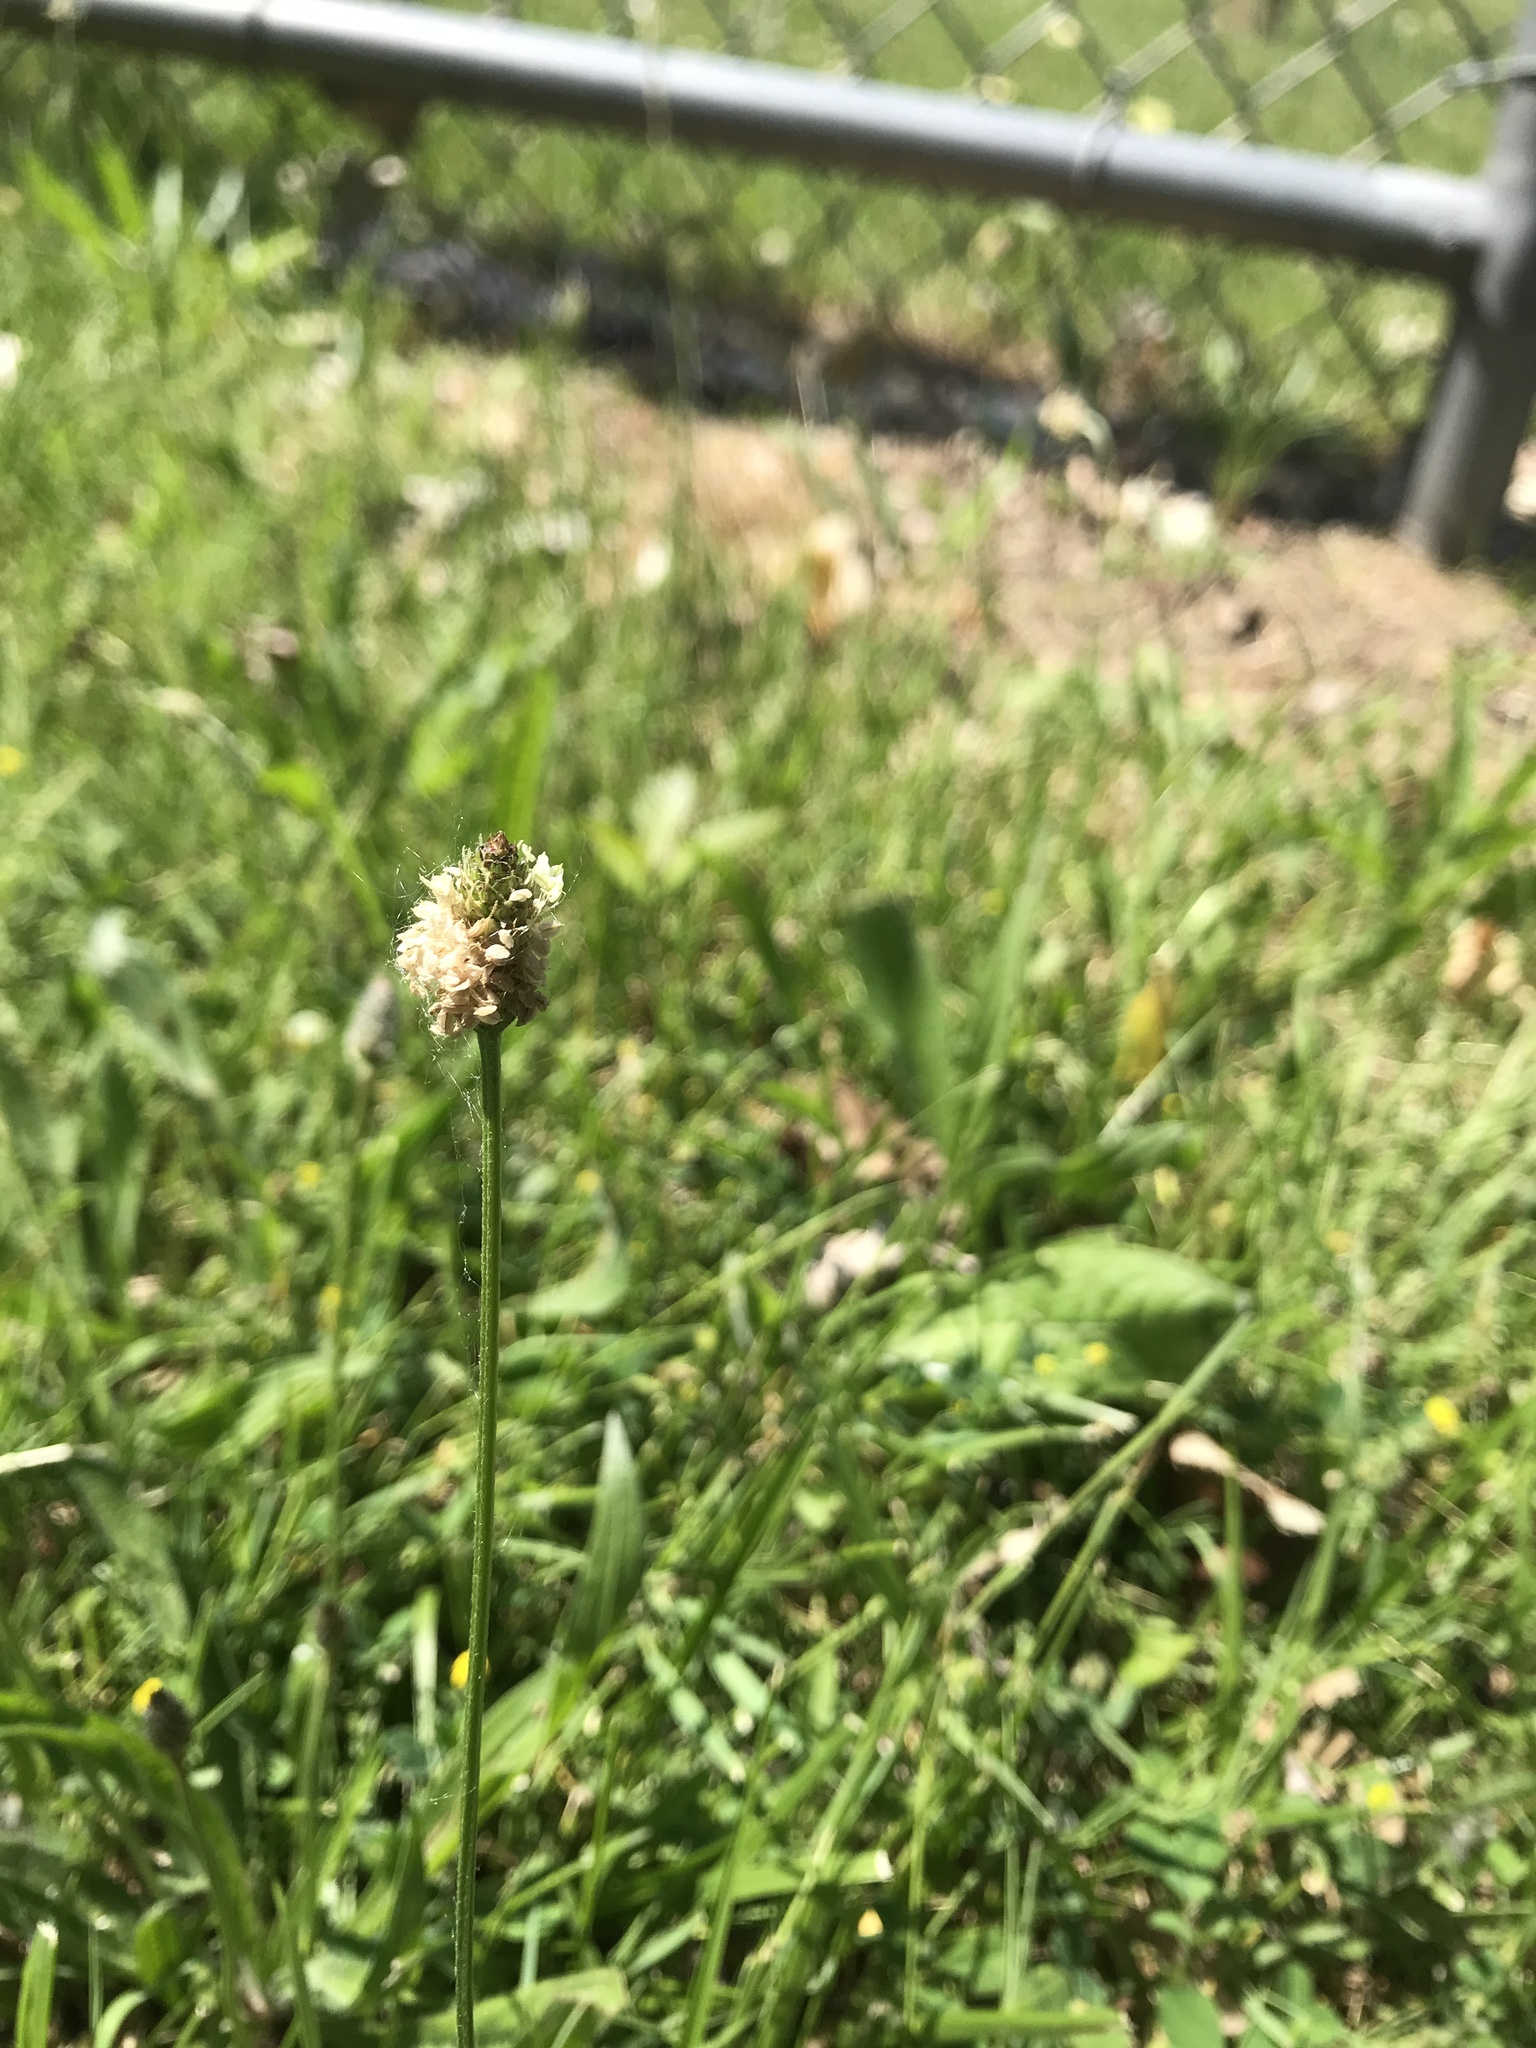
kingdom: Plantae
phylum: Tracheophyta
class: Magnoliopsida
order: Lamiales
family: Plantaginaceae
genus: Plantago
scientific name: Plantago lanceolata
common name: Ribwort plantain
